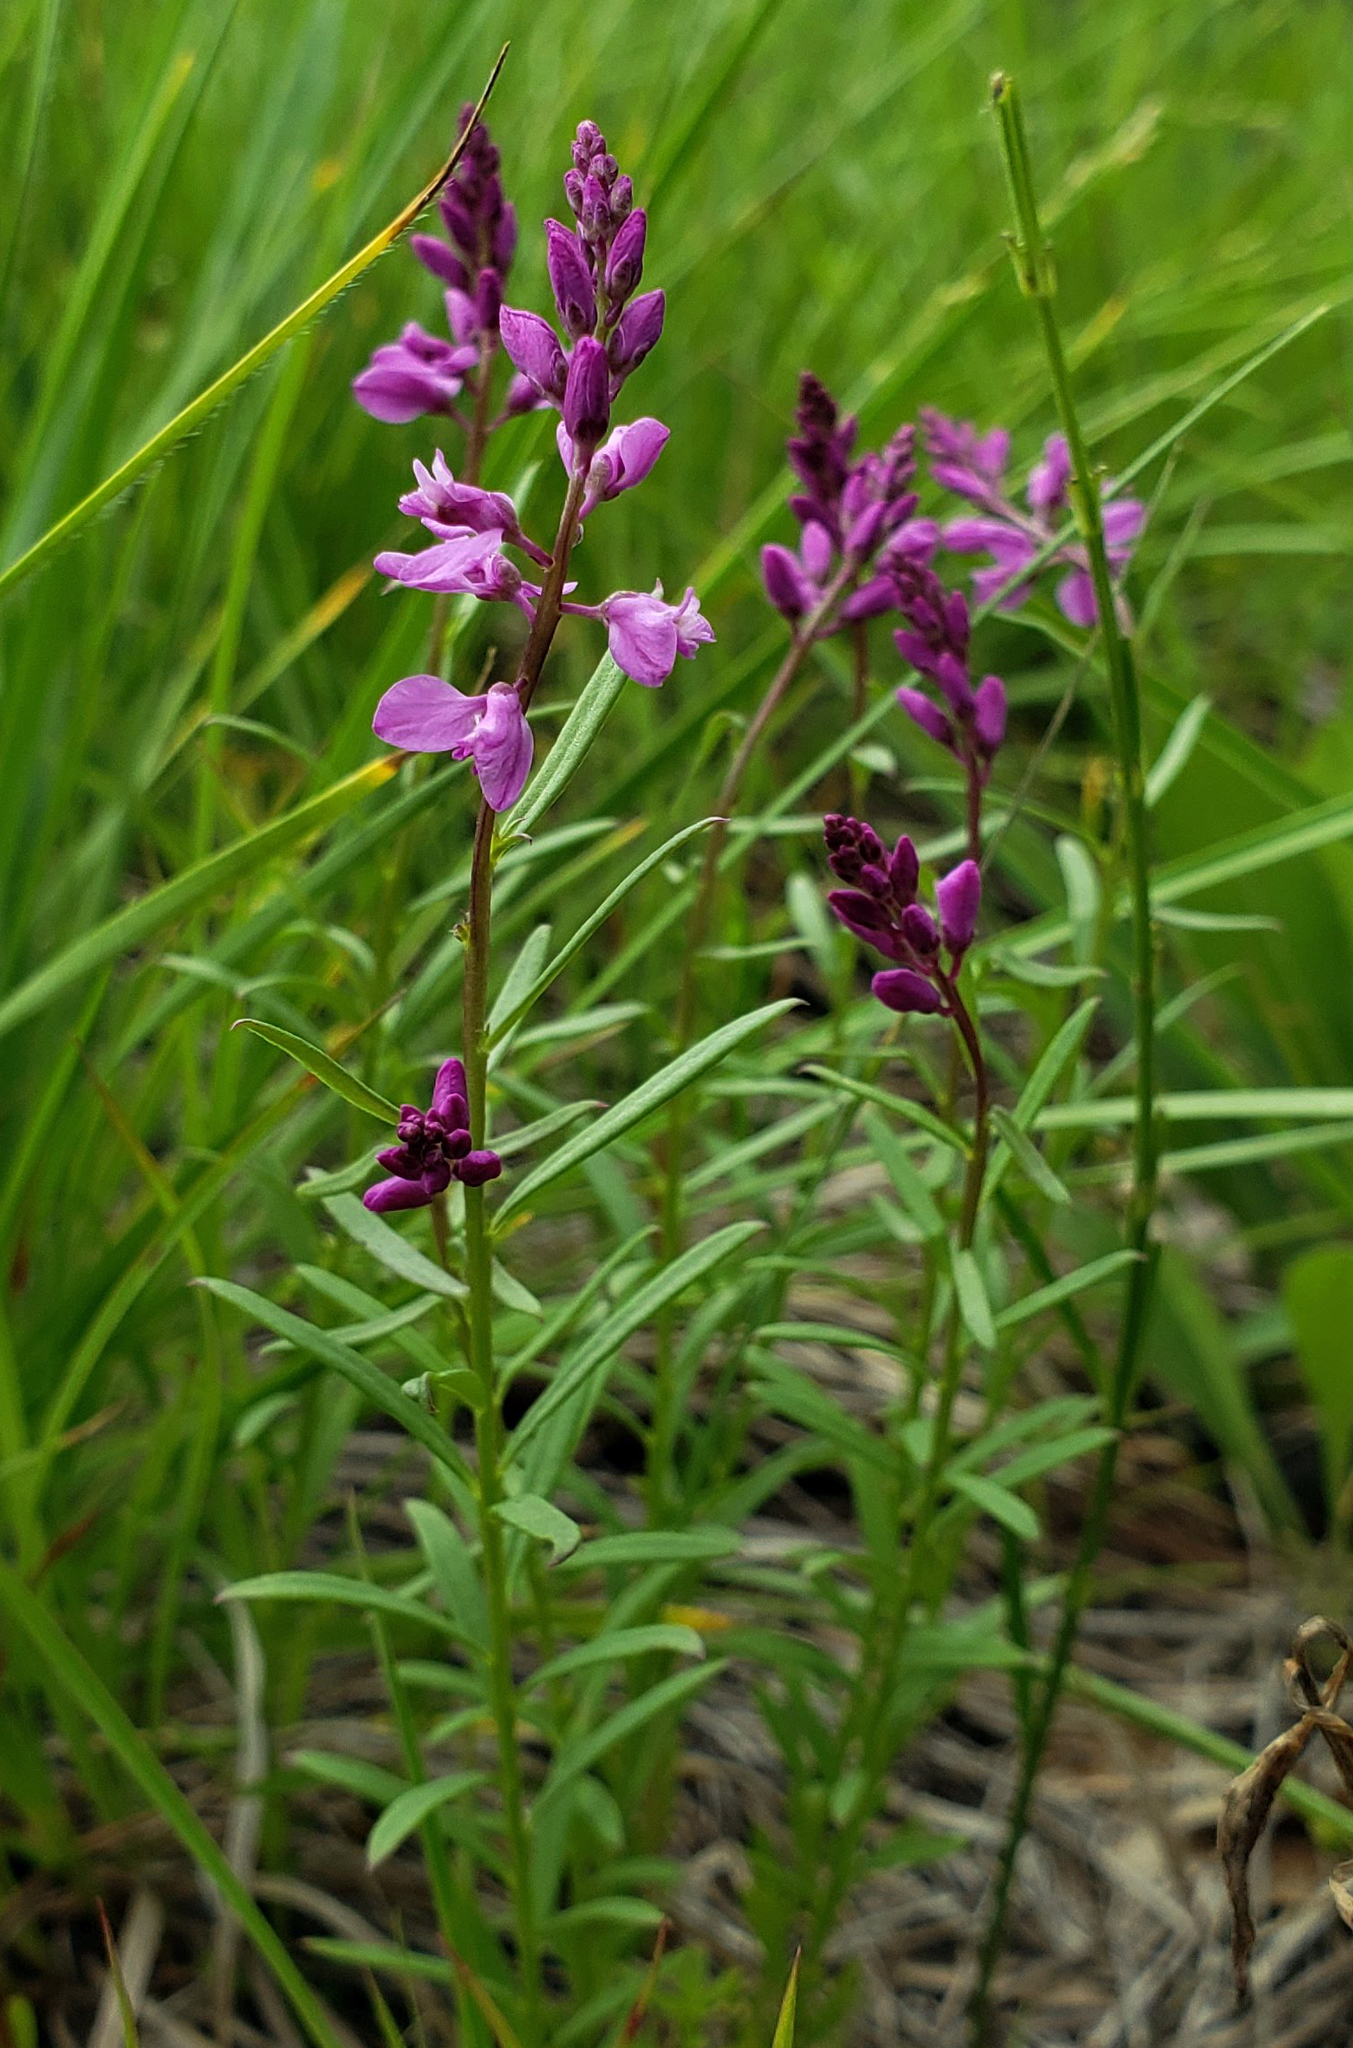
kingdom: Plantae
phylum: Tracheophyta
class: Magnoliopsida
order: Fabales
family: Polygalaceae
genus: Polygala
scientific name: Polygala polygama
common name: Bitter milkwort
